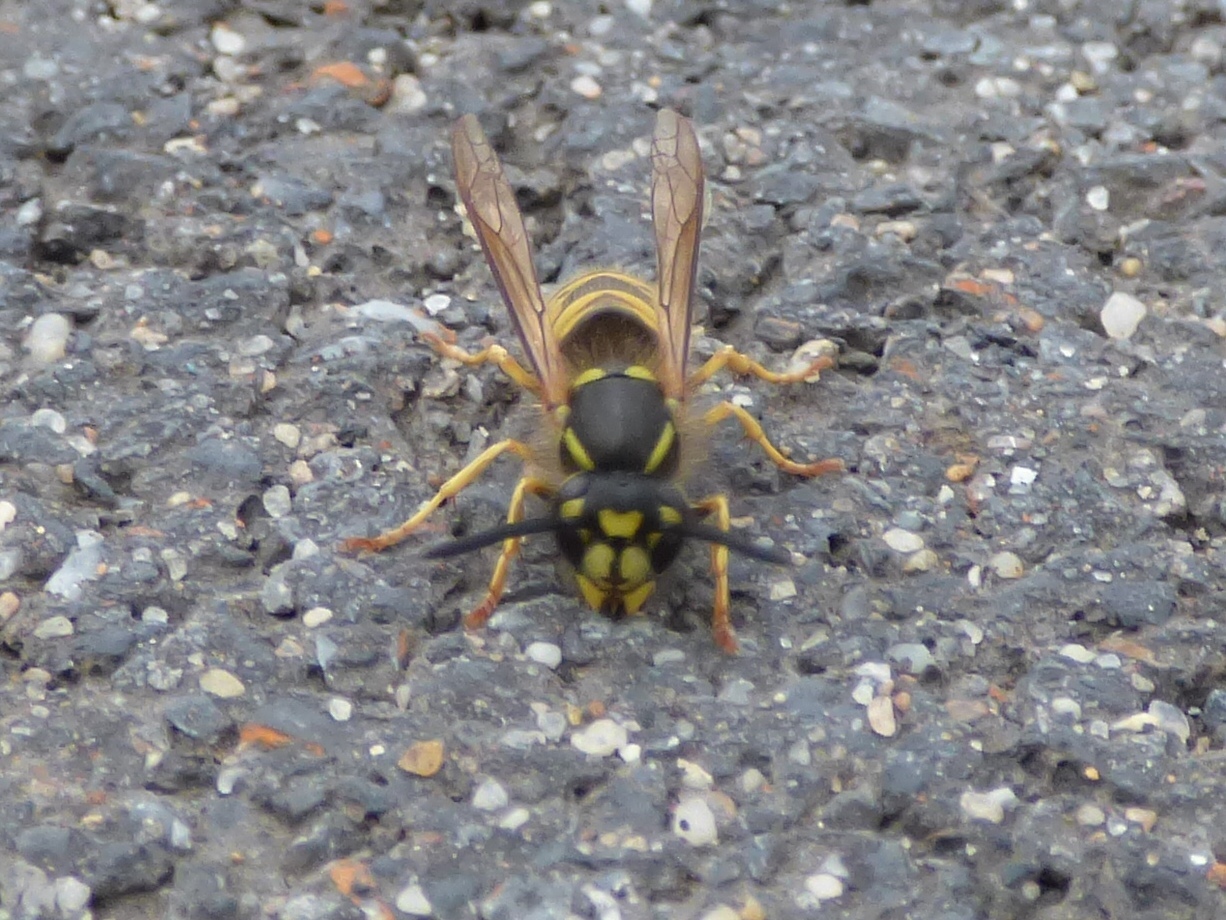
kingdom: Animalia
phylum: Arthropoda
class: Insecta
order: Hymenoptera
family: Vespidae
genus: Vespula
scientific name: Vespula vulgaris
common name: Common wasp
